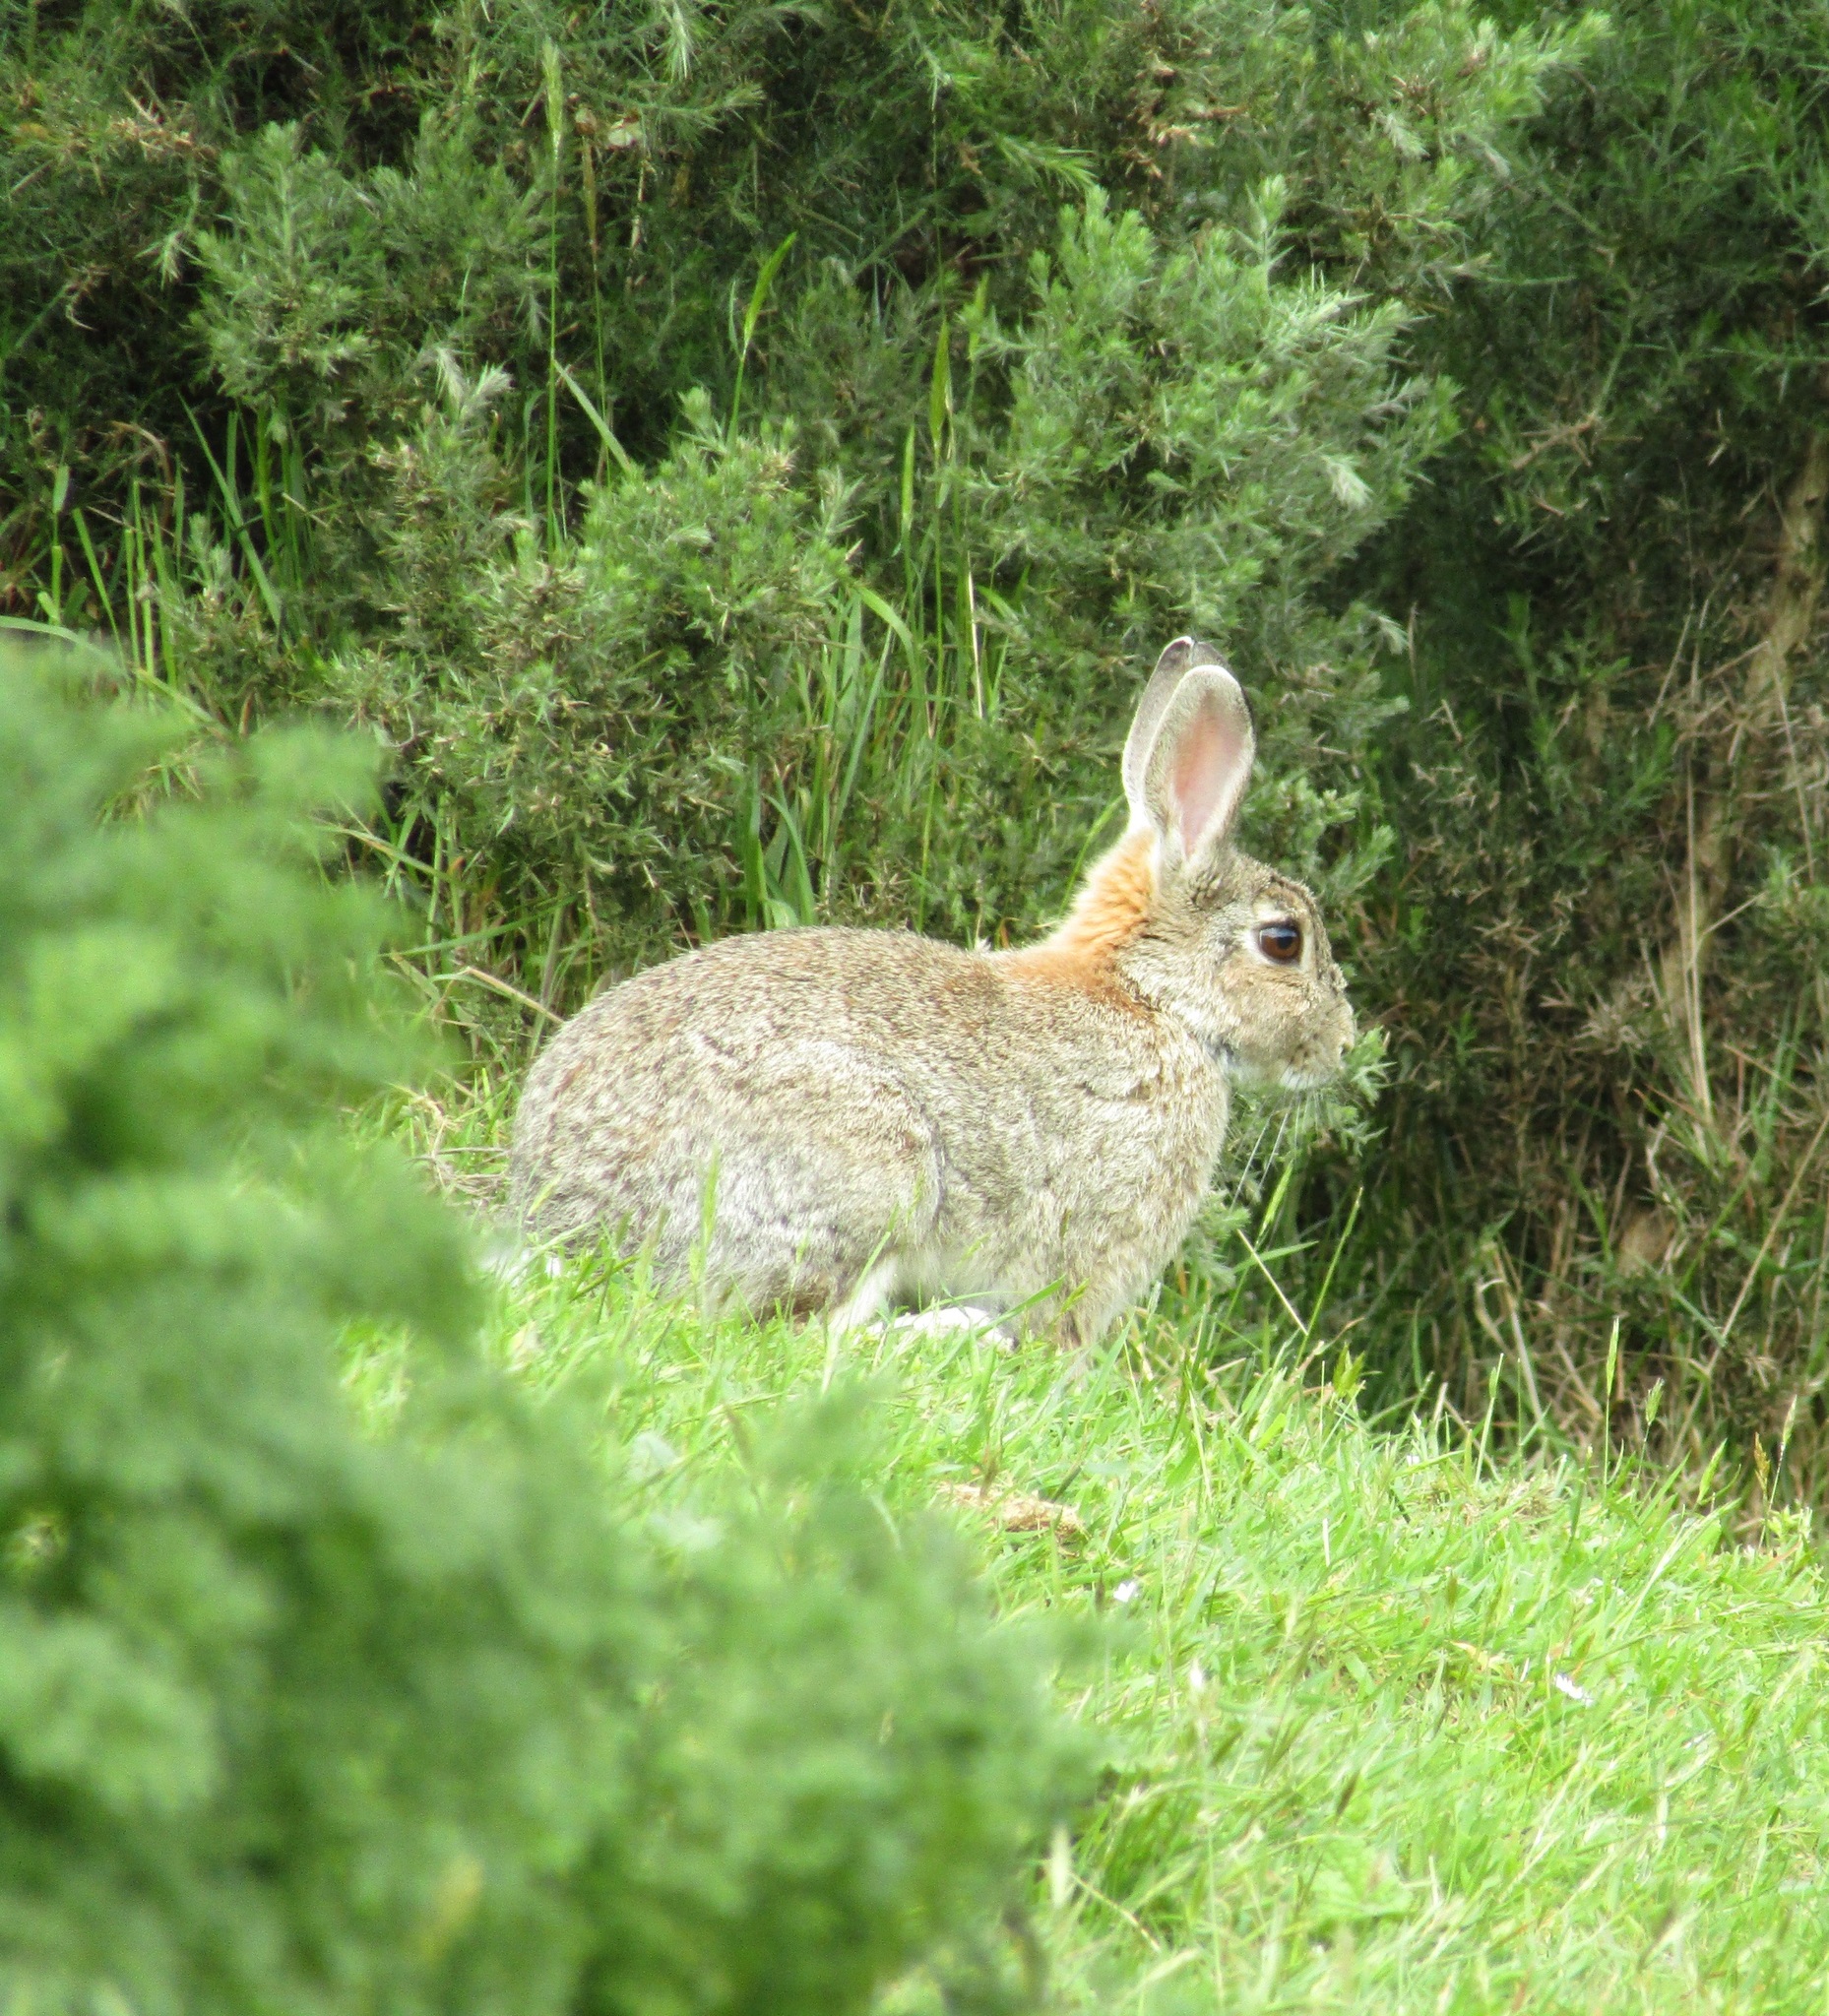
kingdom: Animalia
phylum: Chordata
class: Mammalia
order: Lagomorpha
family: Leporidae
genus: Oryctolagus
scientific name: Oryctolagus cuniculus
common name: European rabbit
